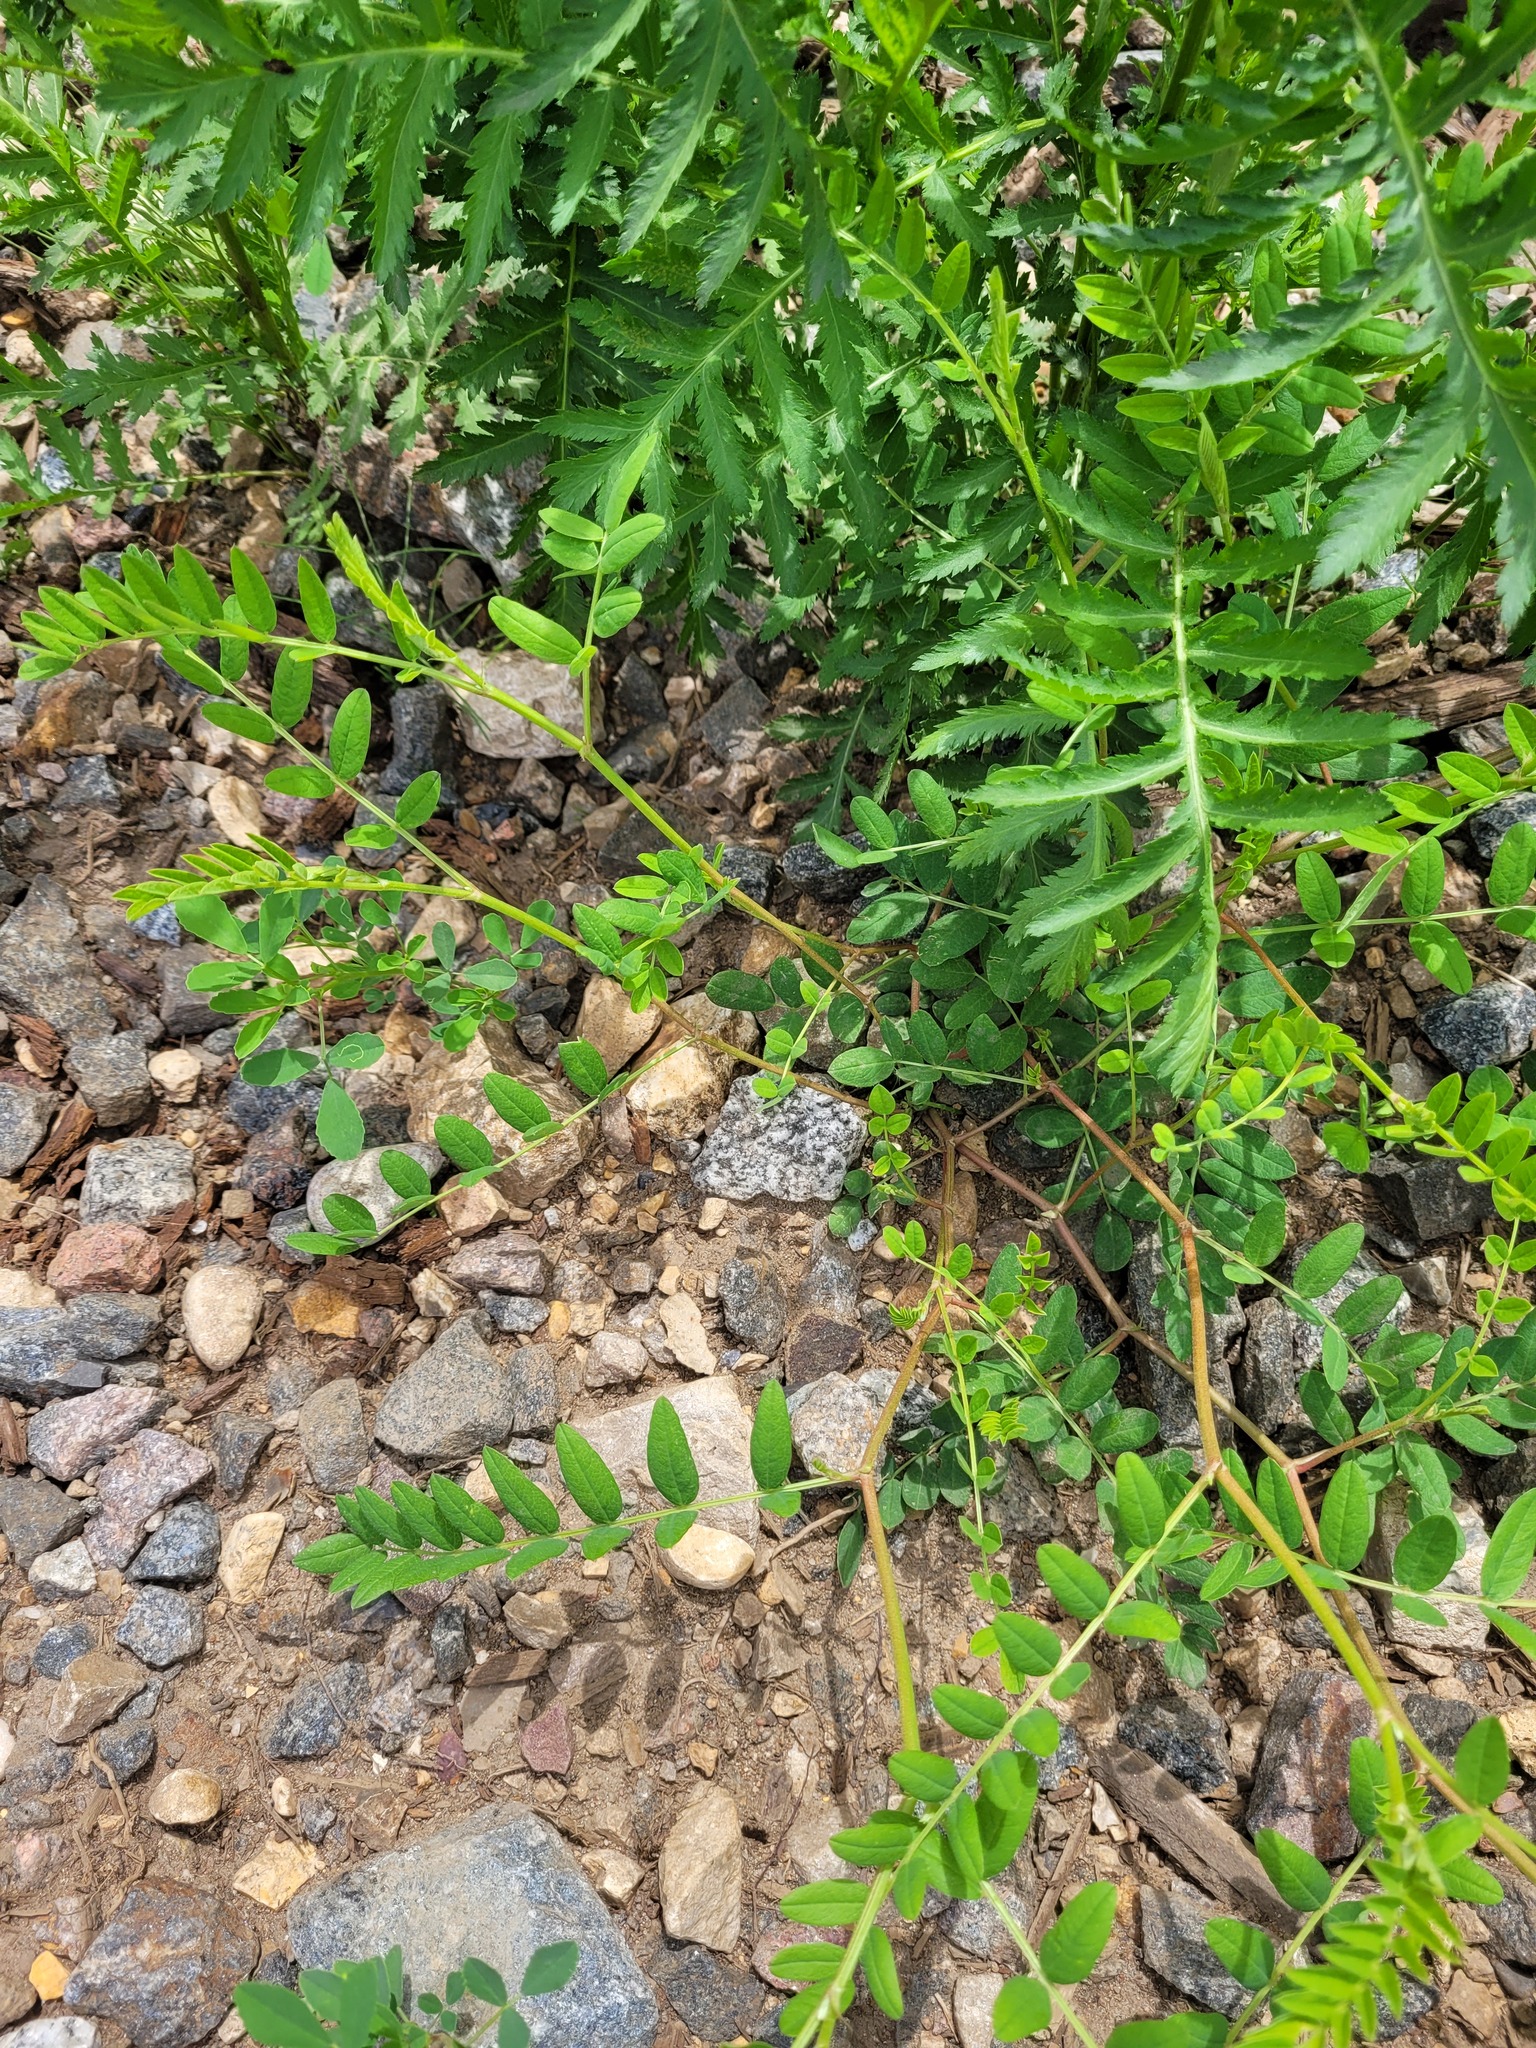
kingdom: Plantae
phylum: Tracheophyta
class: Magnoliopsida
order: Fabales
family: Fabaceae
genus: Astragalus
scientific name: Astragalus cicer
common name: Chick-pea milk-vetch
